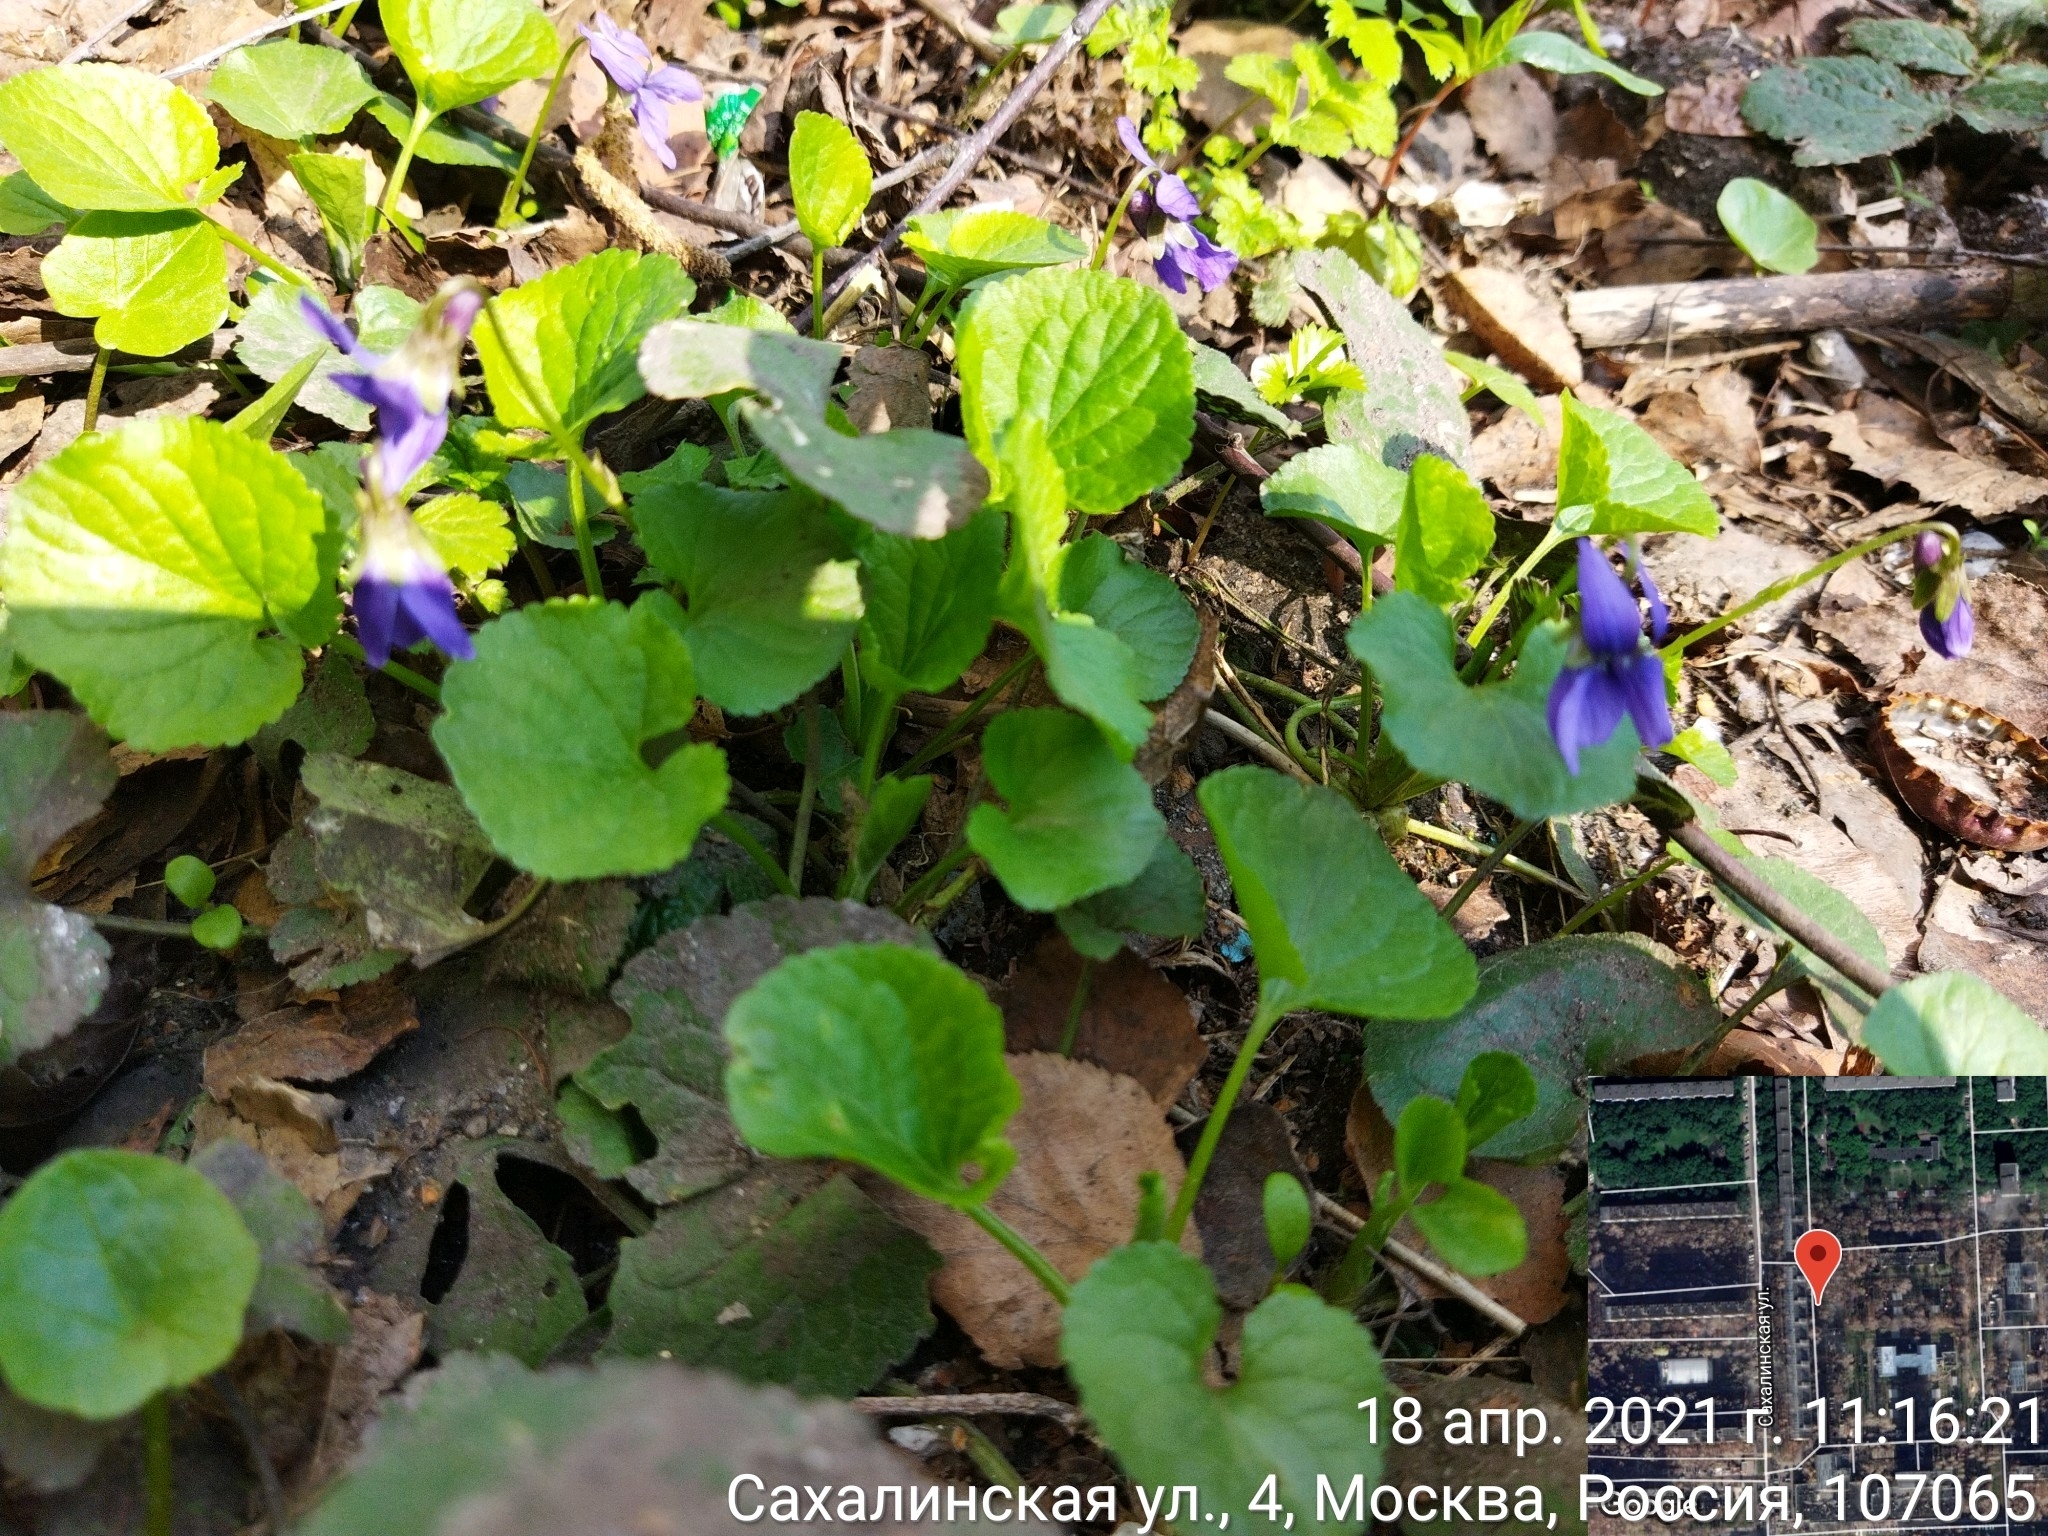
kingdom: Plantae
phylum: Tracheophyta
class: Magnoliopsida
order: Malpighiales
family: Violaceae
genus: Viola
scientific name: Viola odorata
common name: Sweet violet
